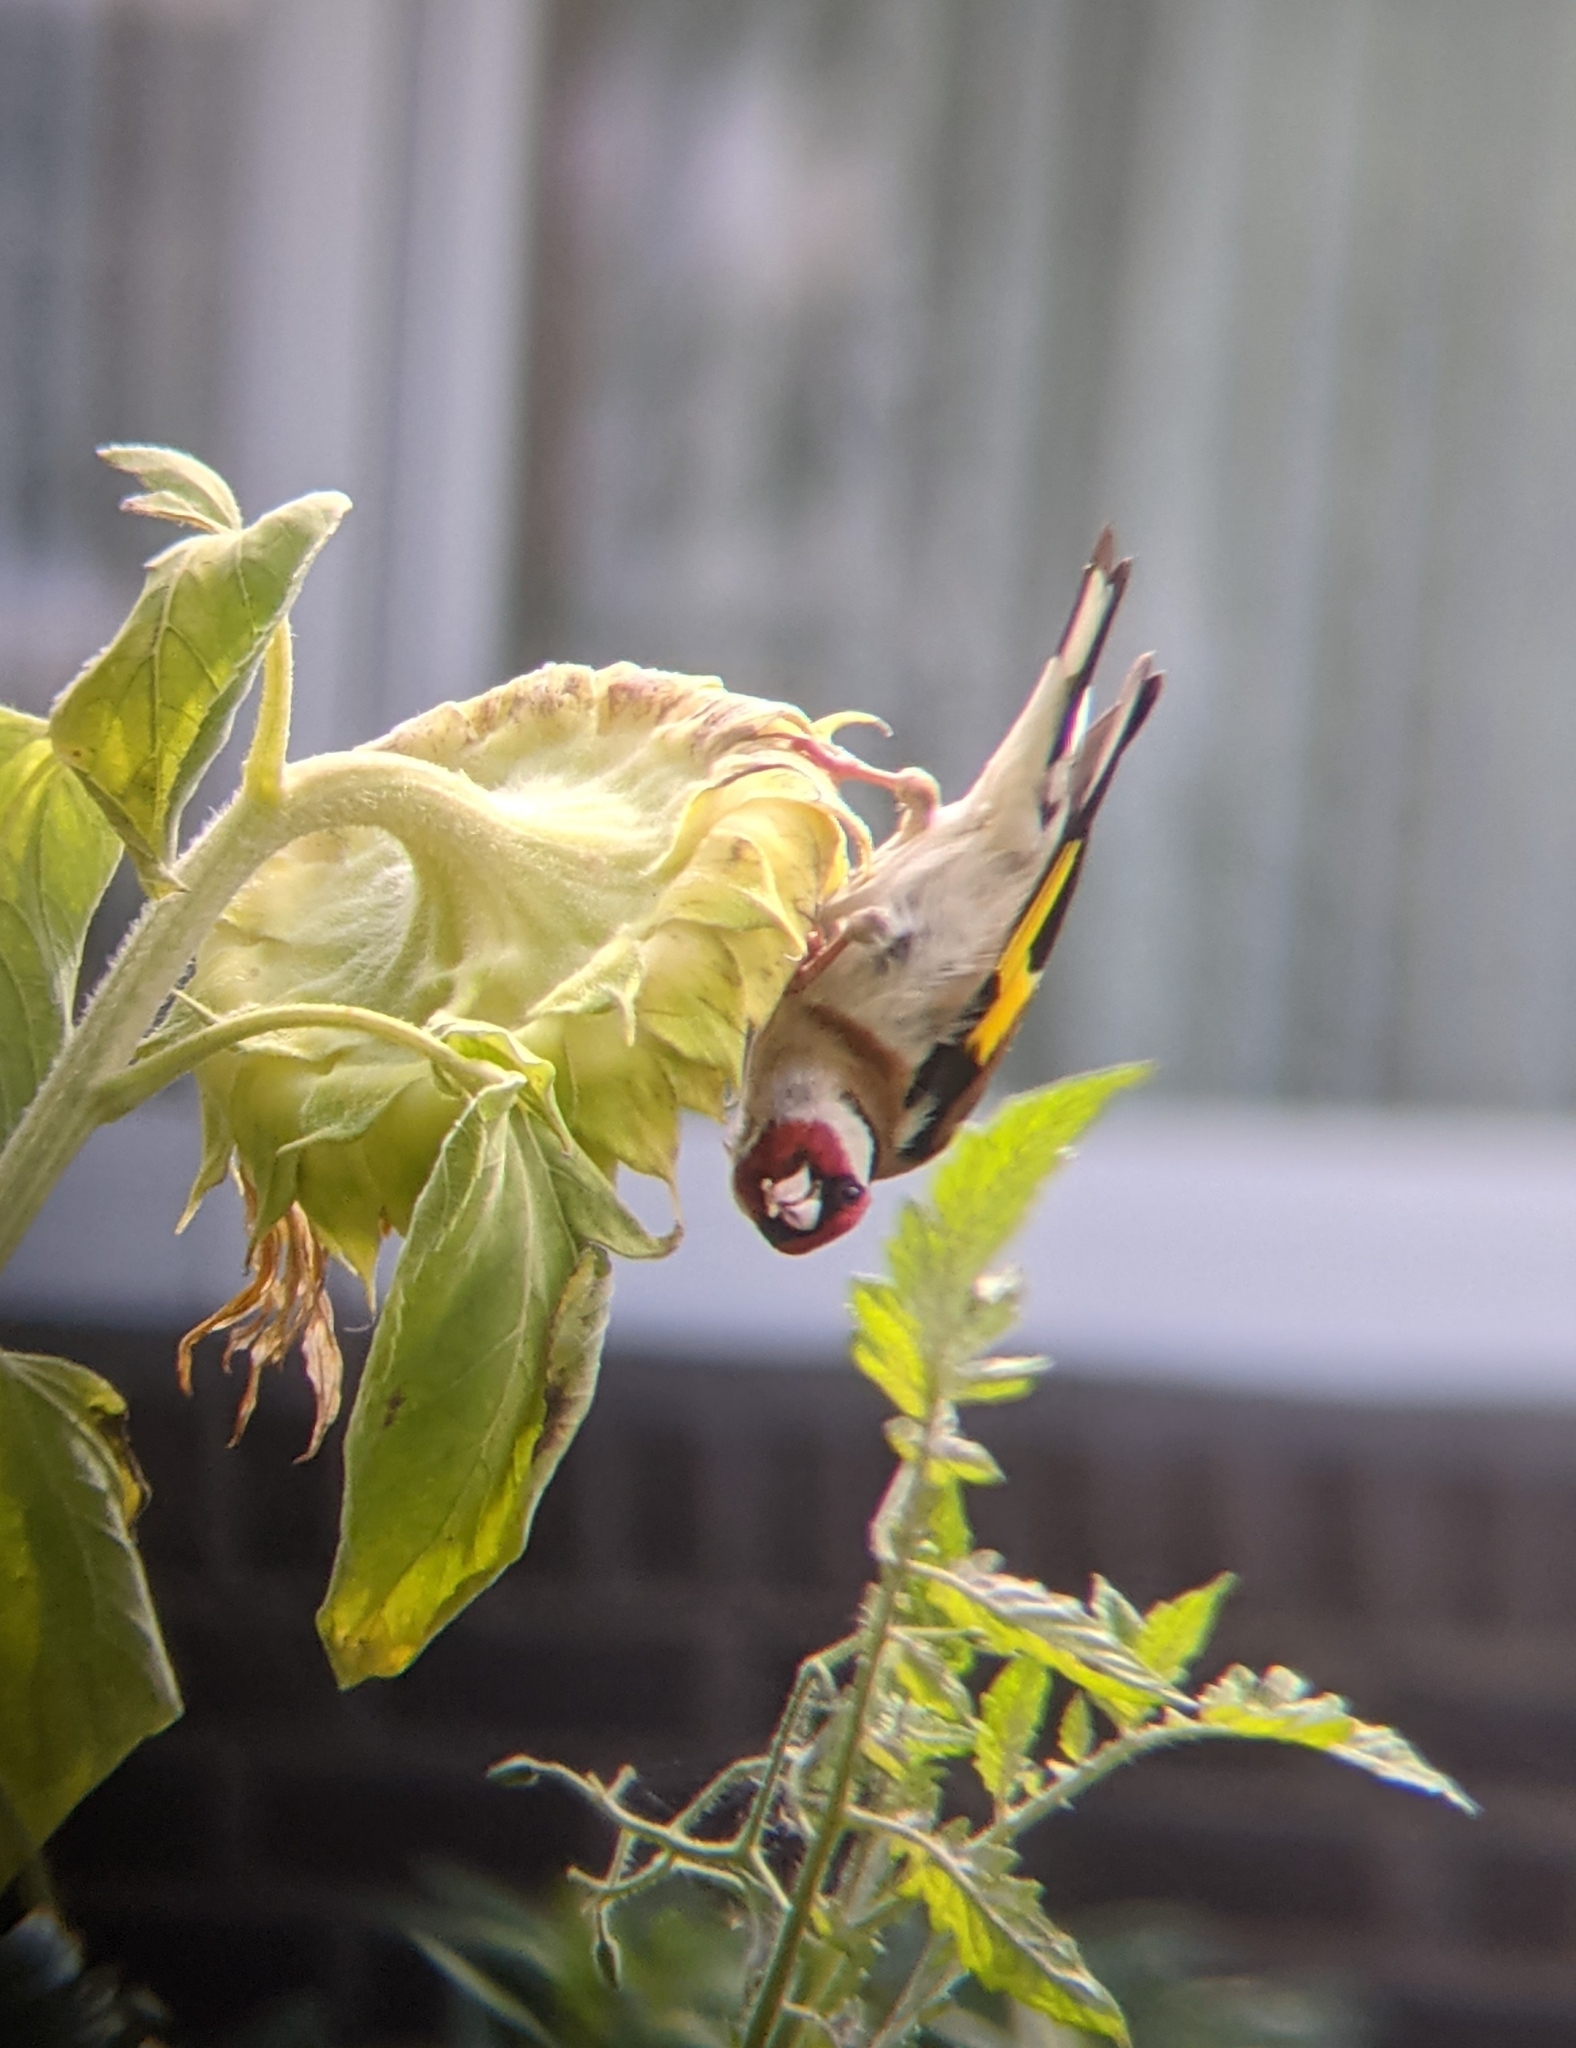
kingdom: Animalia
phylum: Chordata
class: Aves
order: Passeriformes
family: Fringillidae
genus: Carduelis
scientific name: Carduelis carduelis
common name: European goldfinch
